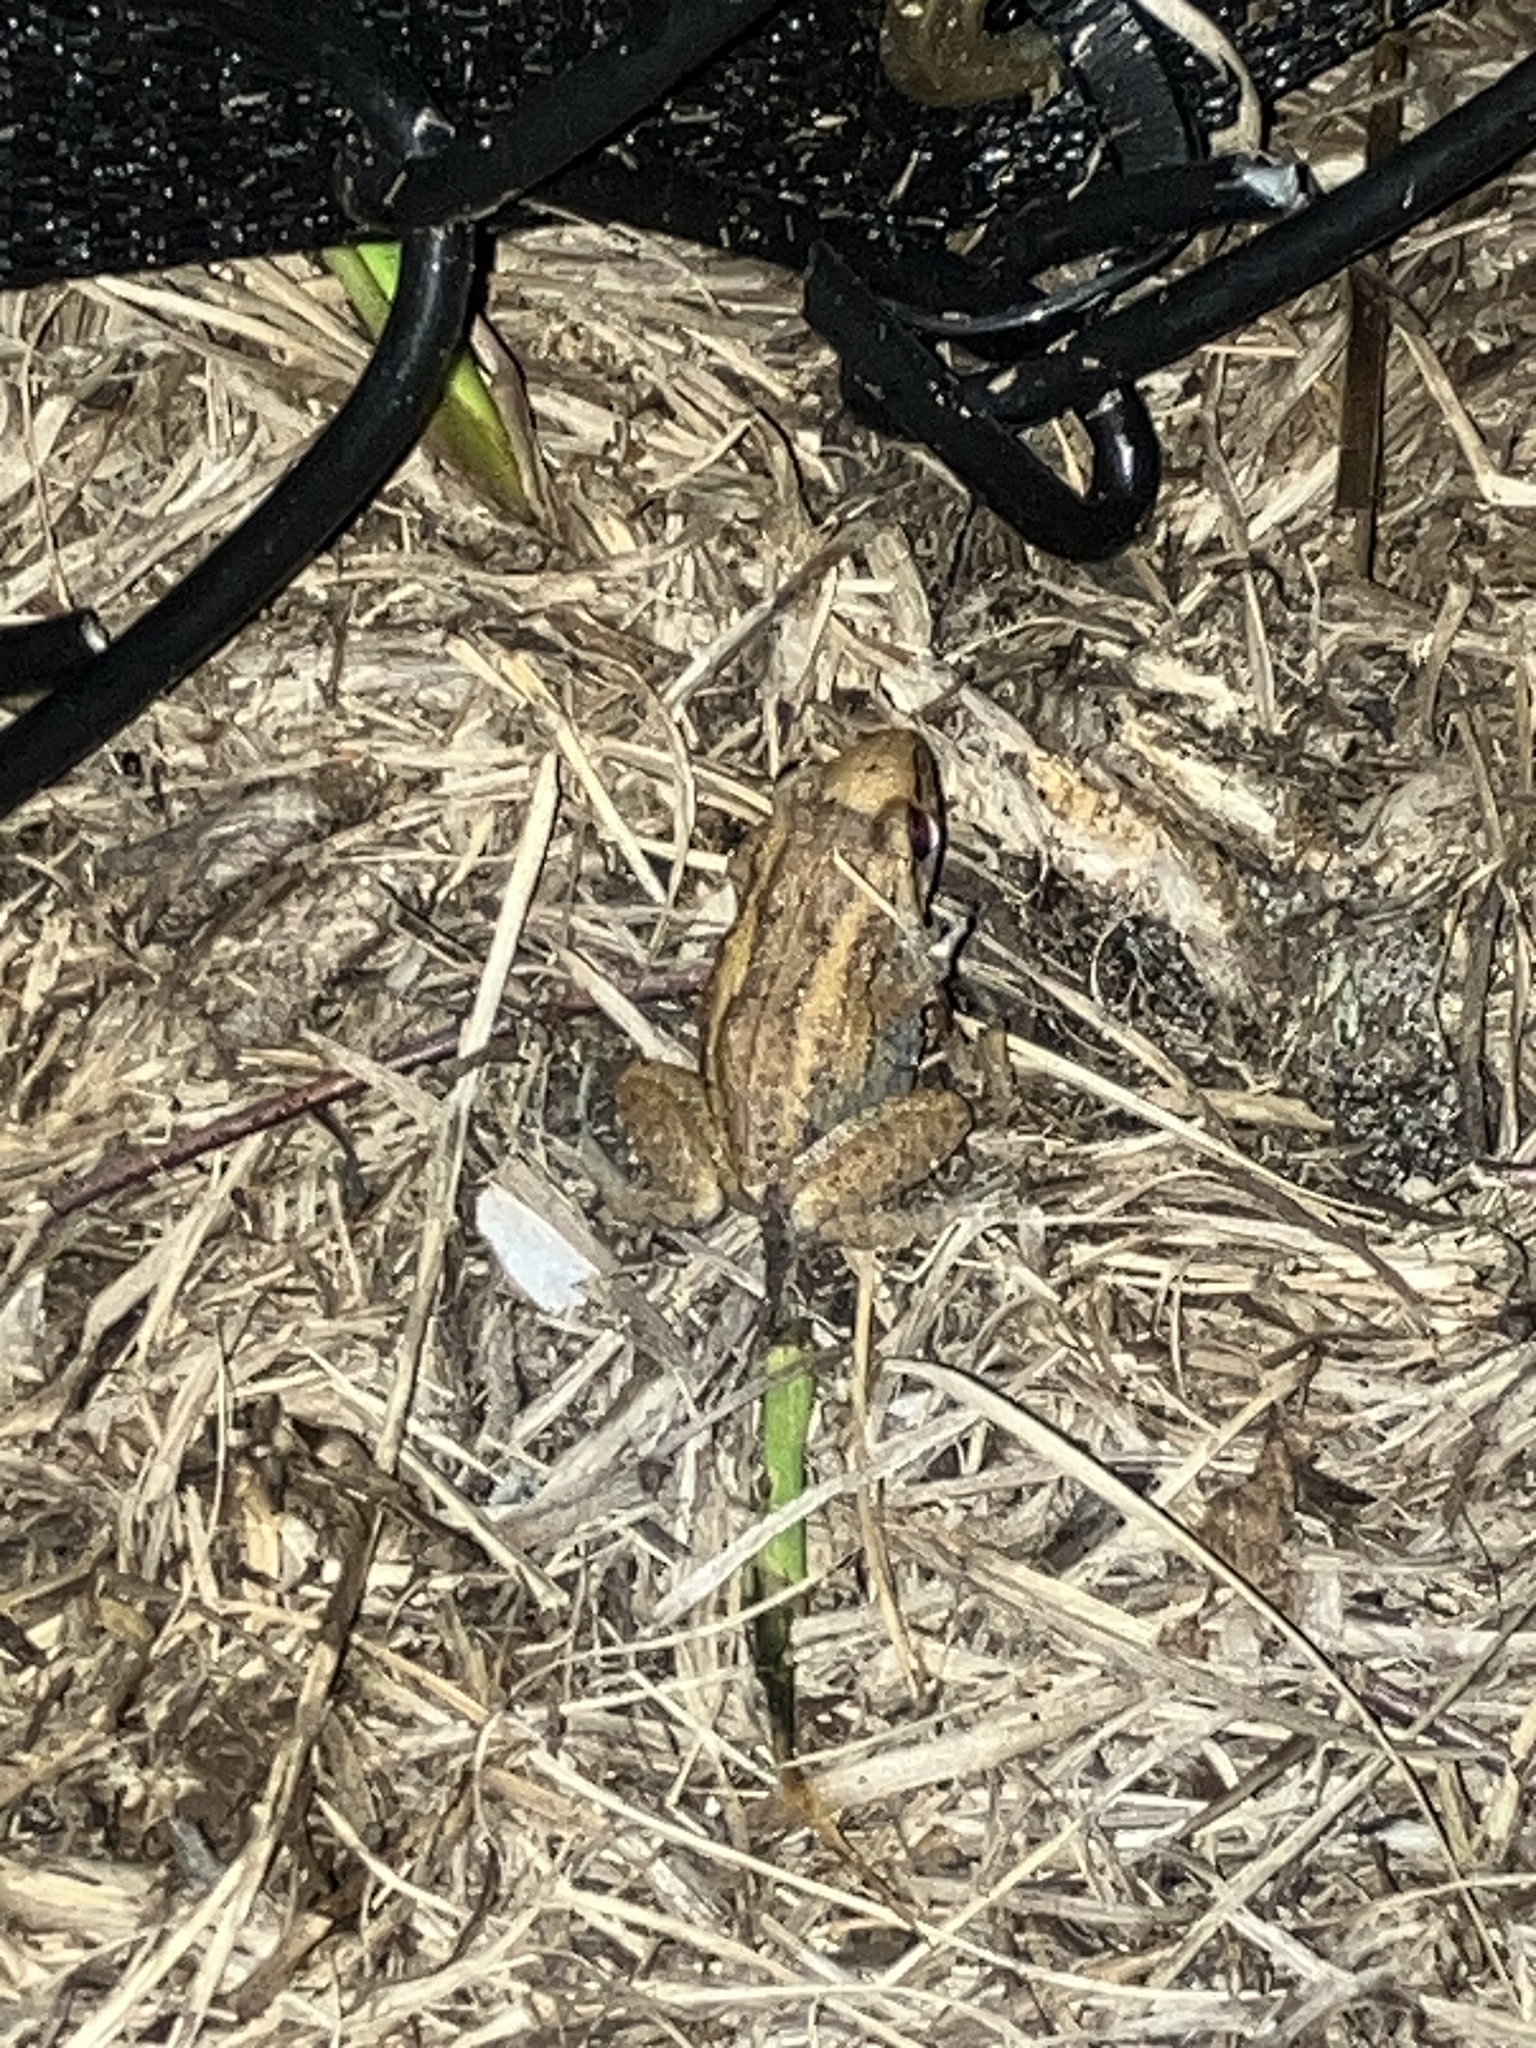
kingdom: Animalia
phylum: Chordata
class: Amphibia
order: Anura
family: Eleutherodactylidae
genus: Eleutherodactylus
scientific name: Eleutherodactylus planirostris
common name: Greenhouse frog
